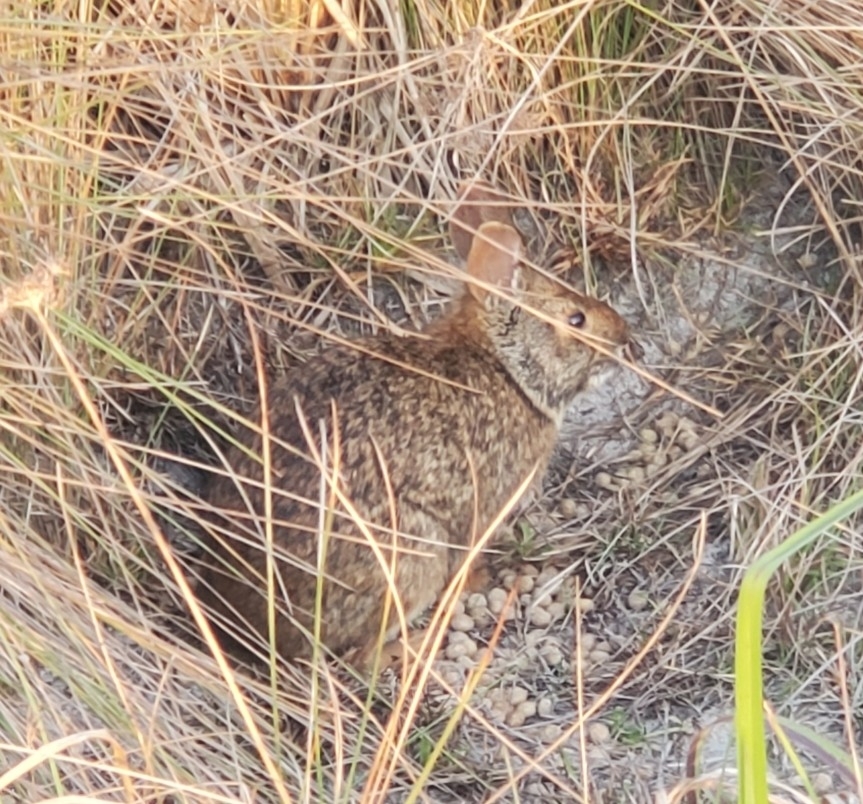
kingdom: Animalia
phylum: Chordata
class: Mammalia
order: Lagomorpha
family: Leporidae
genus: Sylvilagus
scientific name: Sylvilagus palustris
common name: Marsh rabbit
